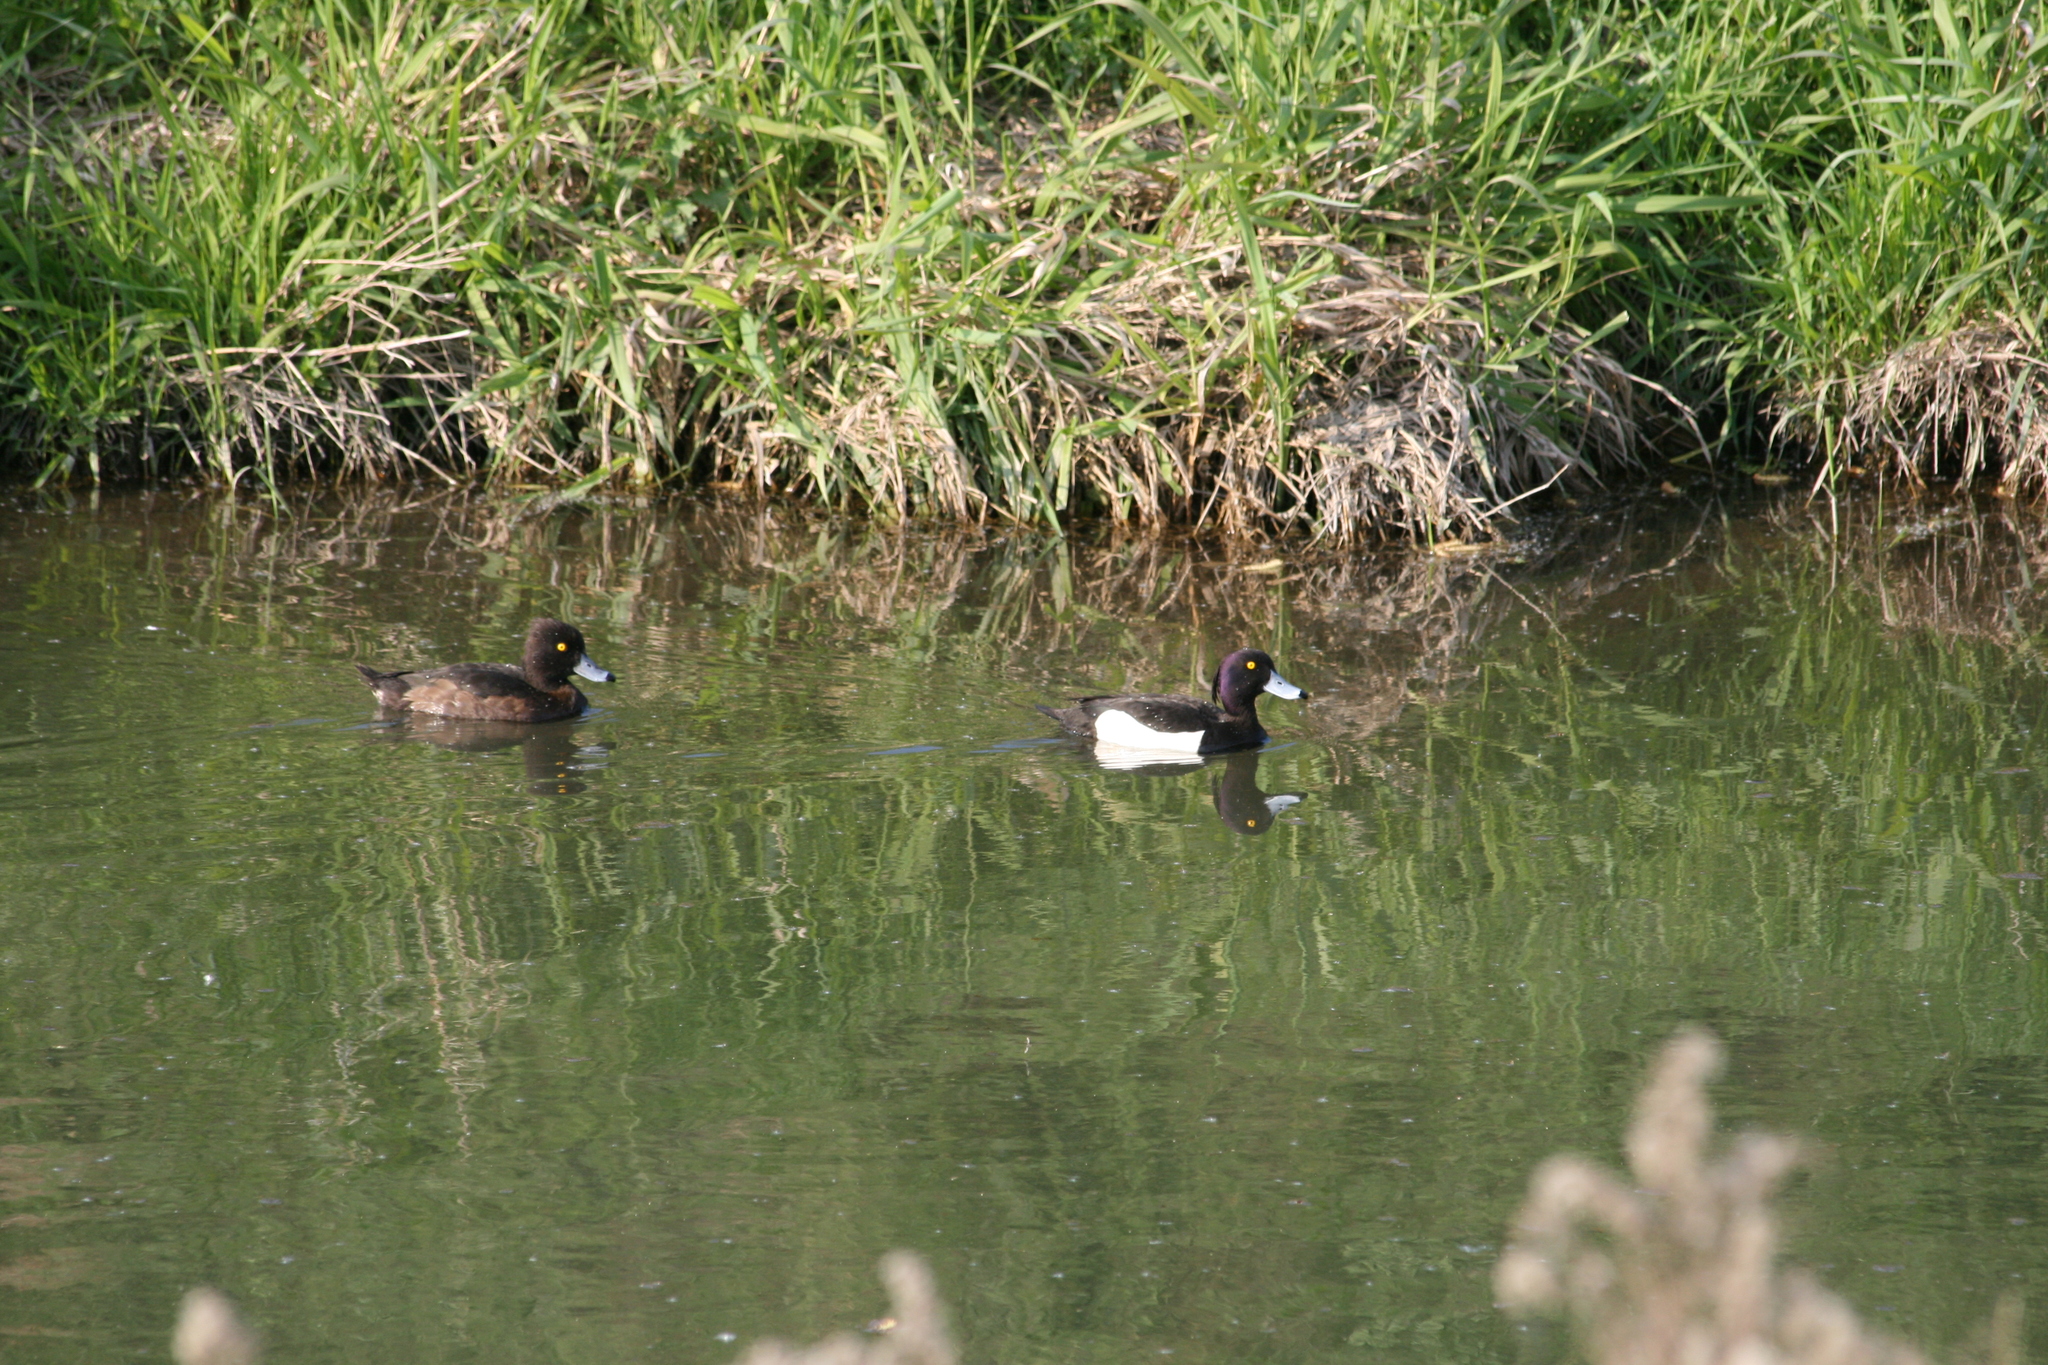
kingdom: Animalia
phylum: Chordata
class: Aves
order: Anseriformes
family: Anatidae
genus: Aythya
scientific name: Aythya fuligula
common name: Tufted duck
